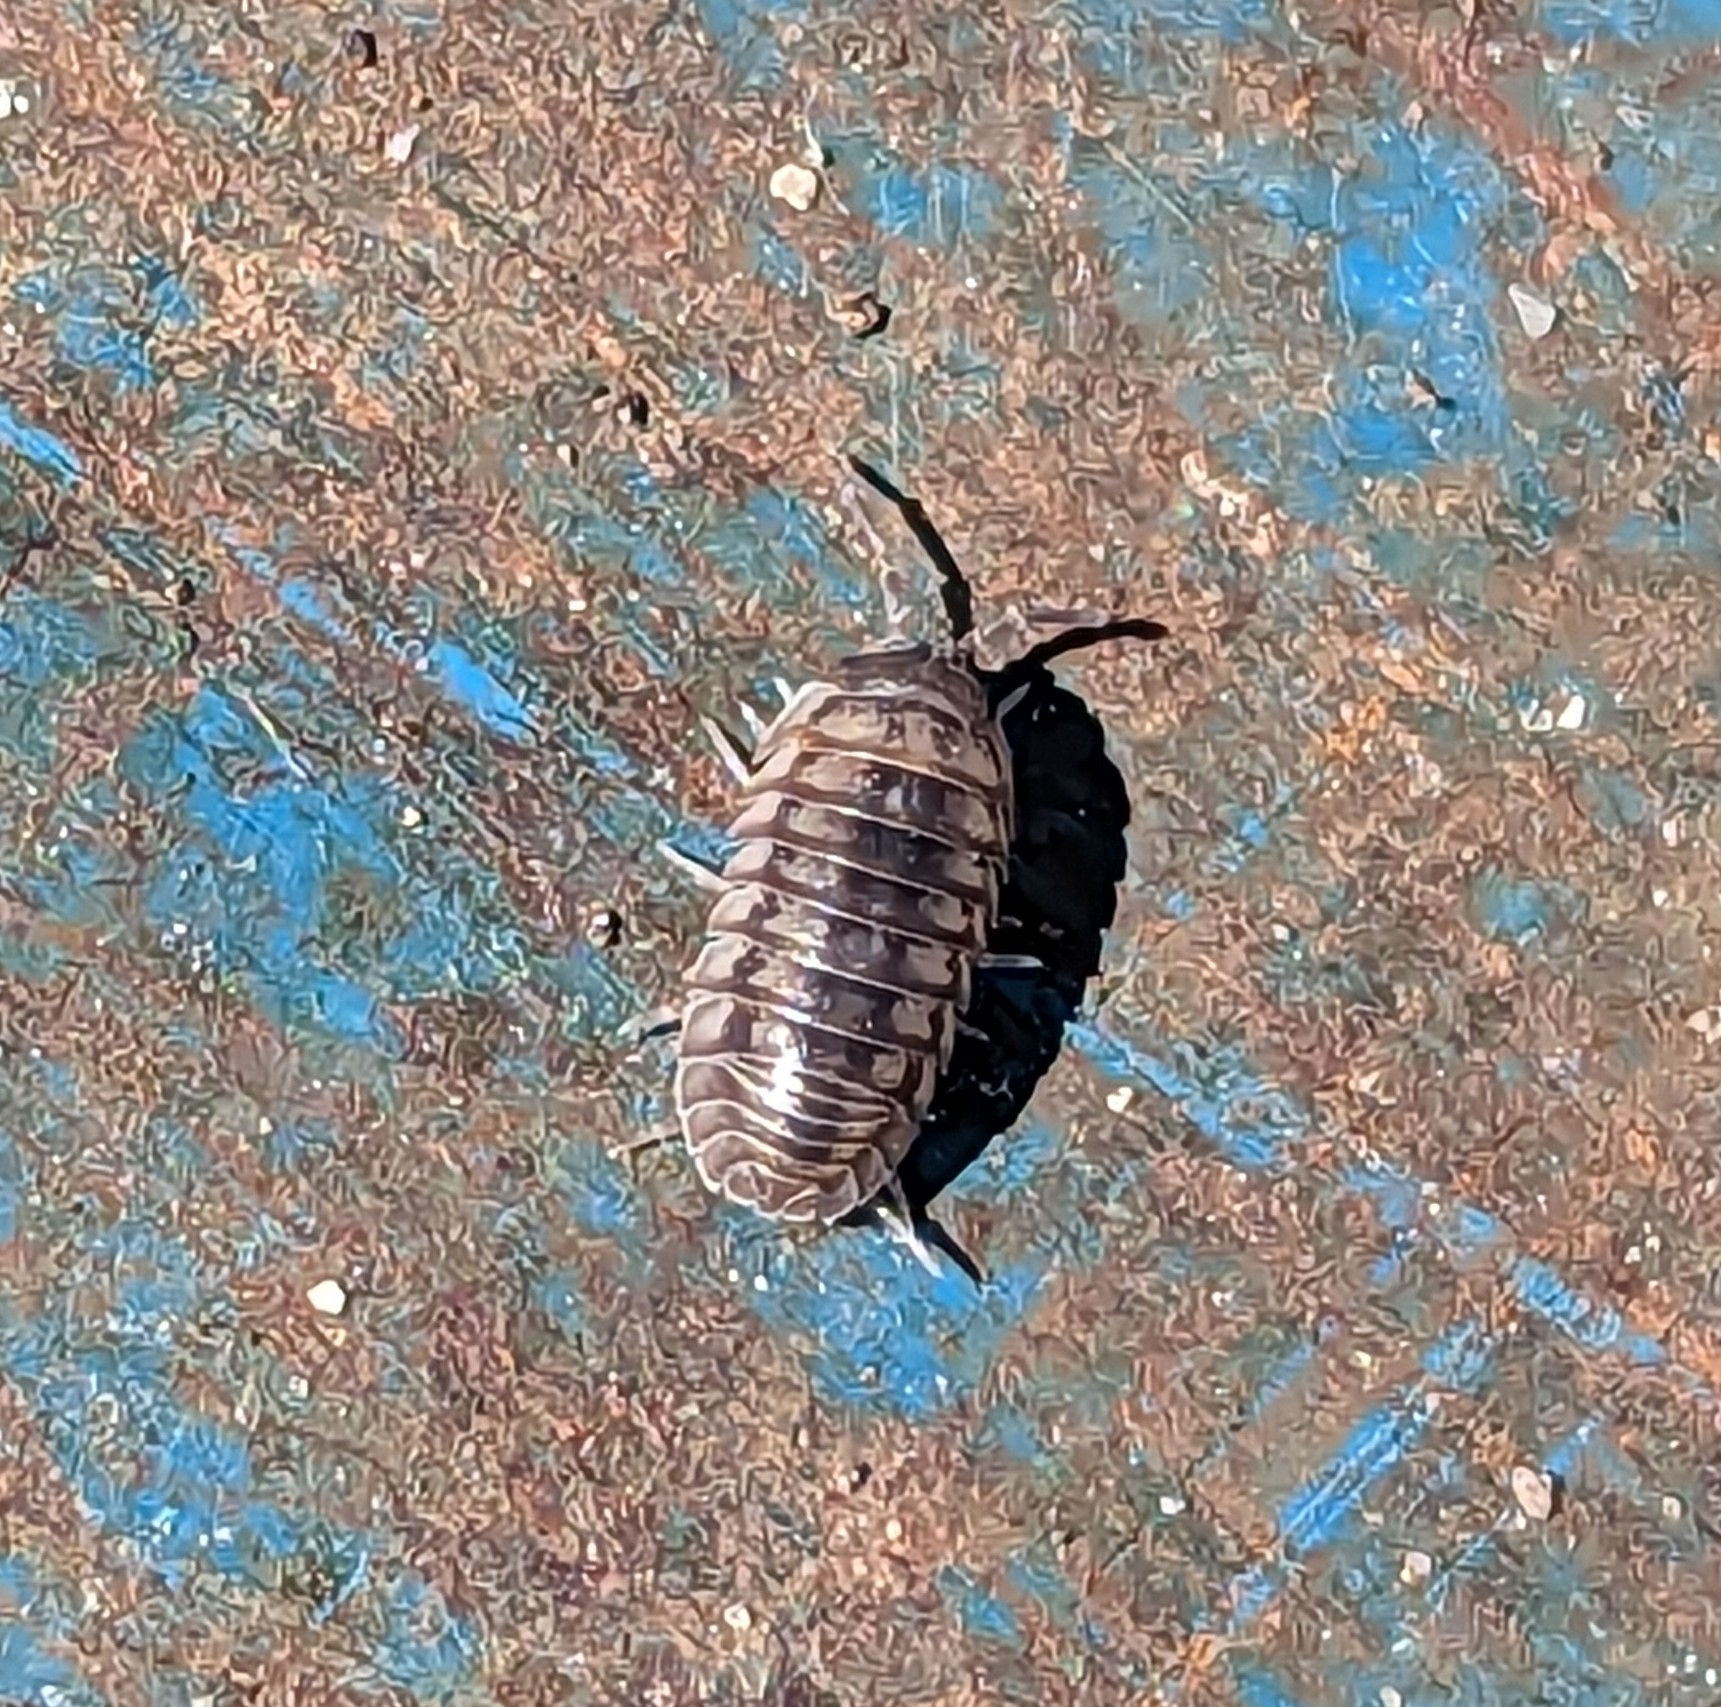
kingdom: Animalia
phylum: Arthropoda
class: Malacostraca
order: Isopoda
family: Armadillidiidae
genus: Armadillidium
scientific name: Armadillidium nasatum
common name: Isopod
